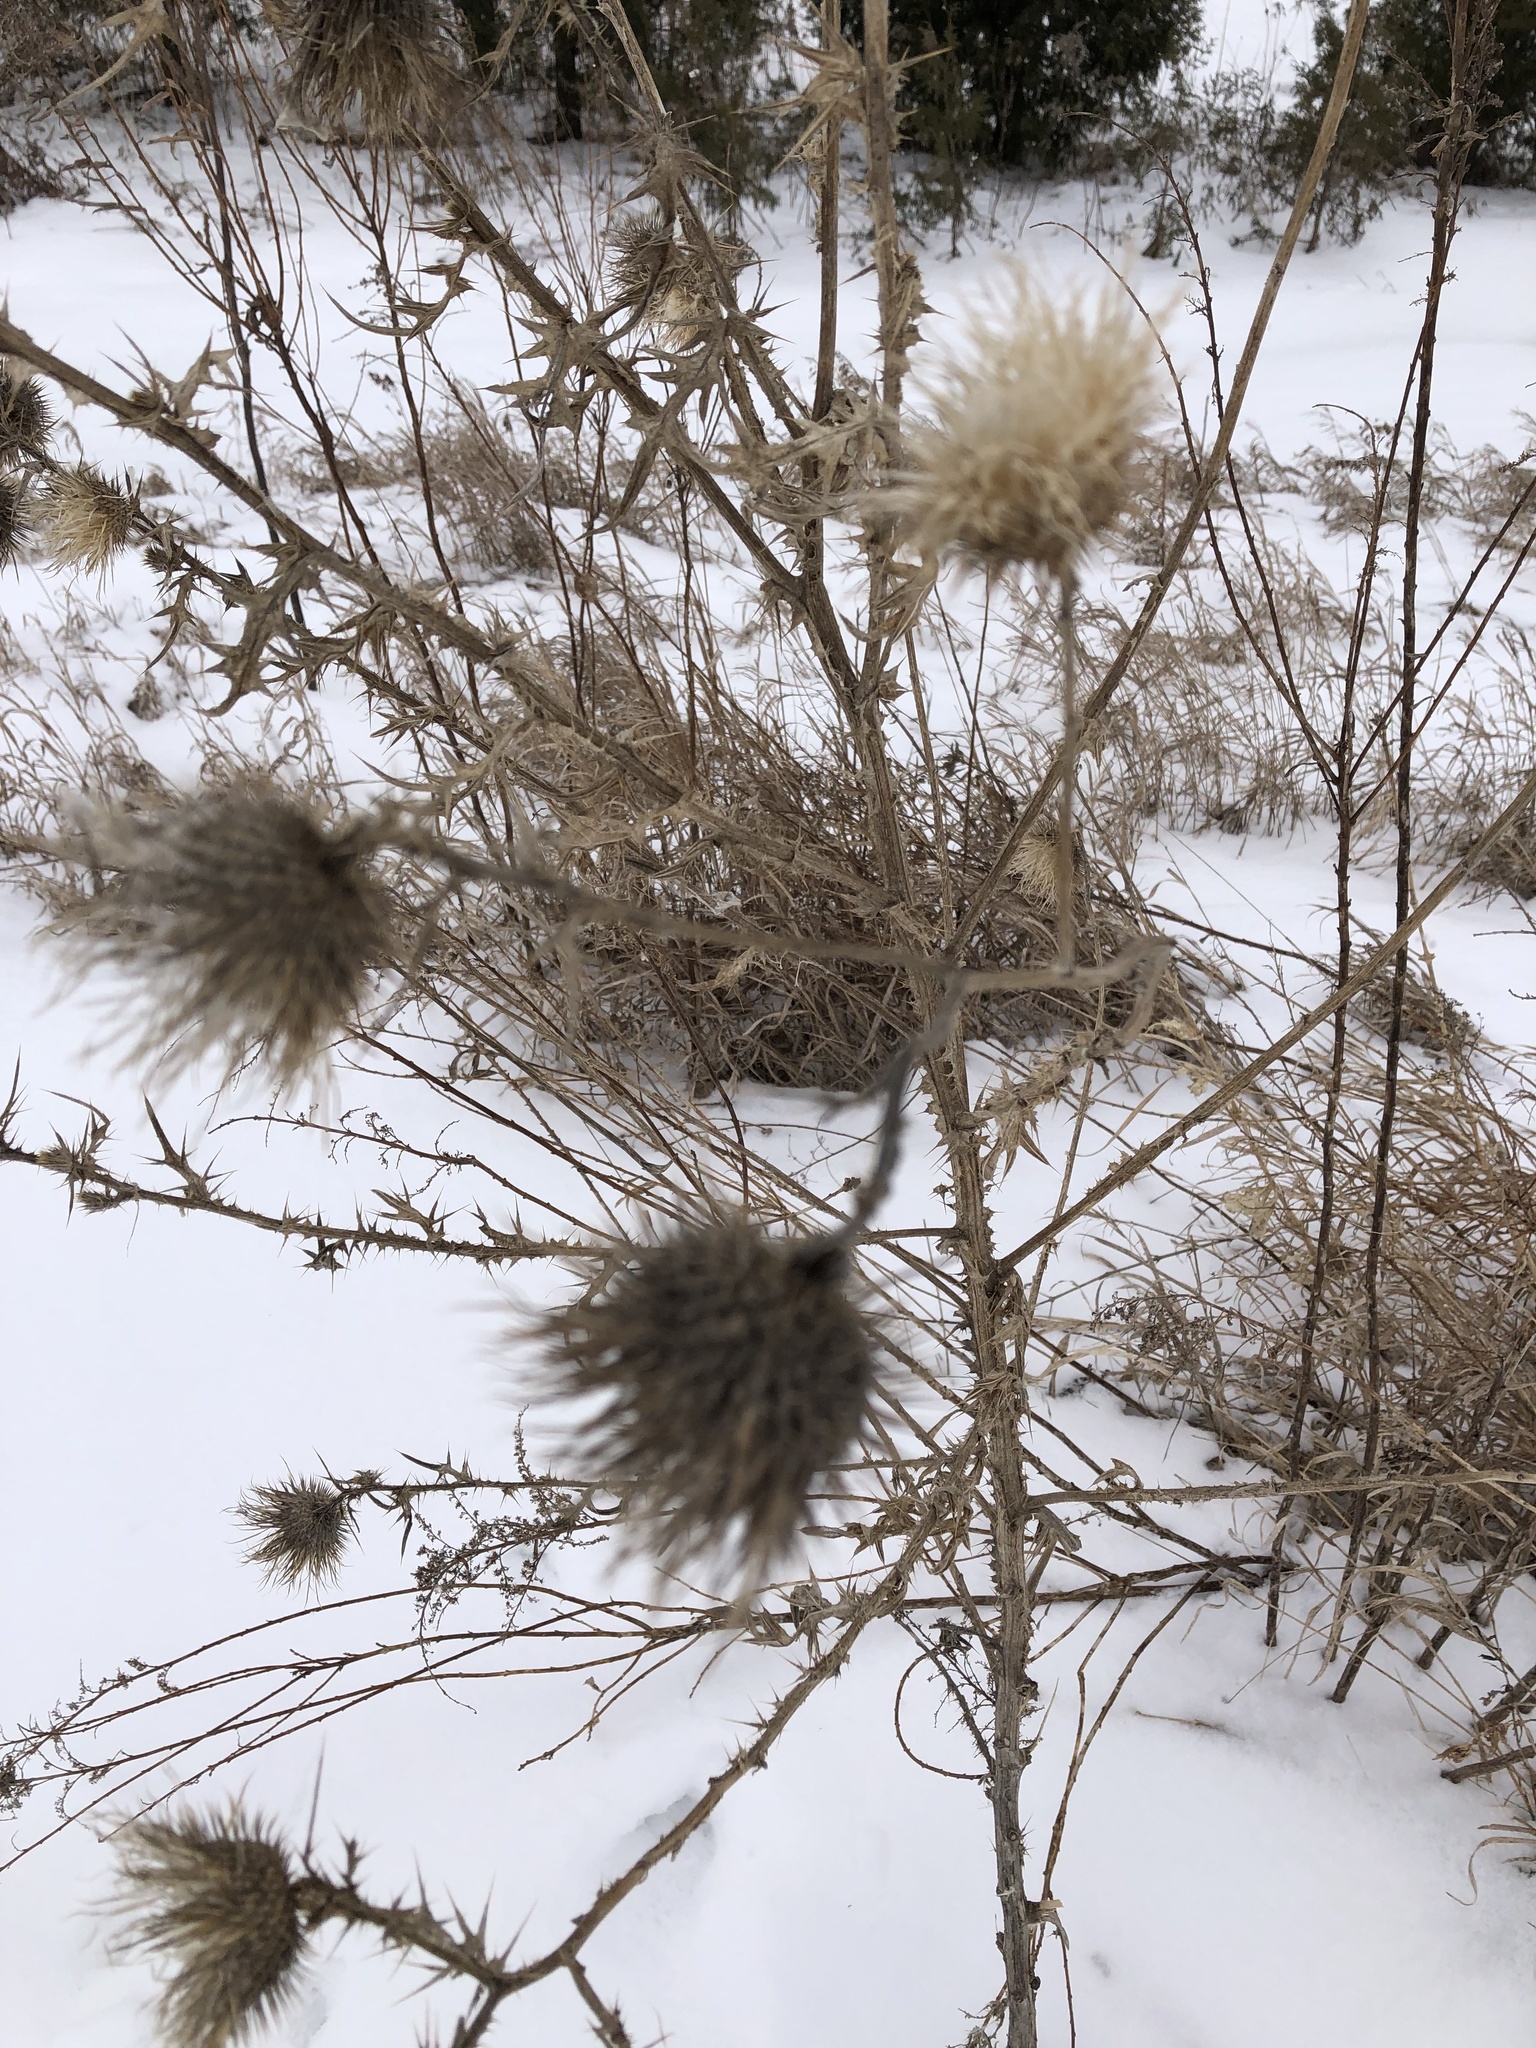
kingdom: Plantae
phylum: Tracheophyta
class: Magnoliopsida
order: Asterales
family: Asteraceae
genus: Cirsium
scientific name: Cirsium vulgare
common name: Bull thistle
